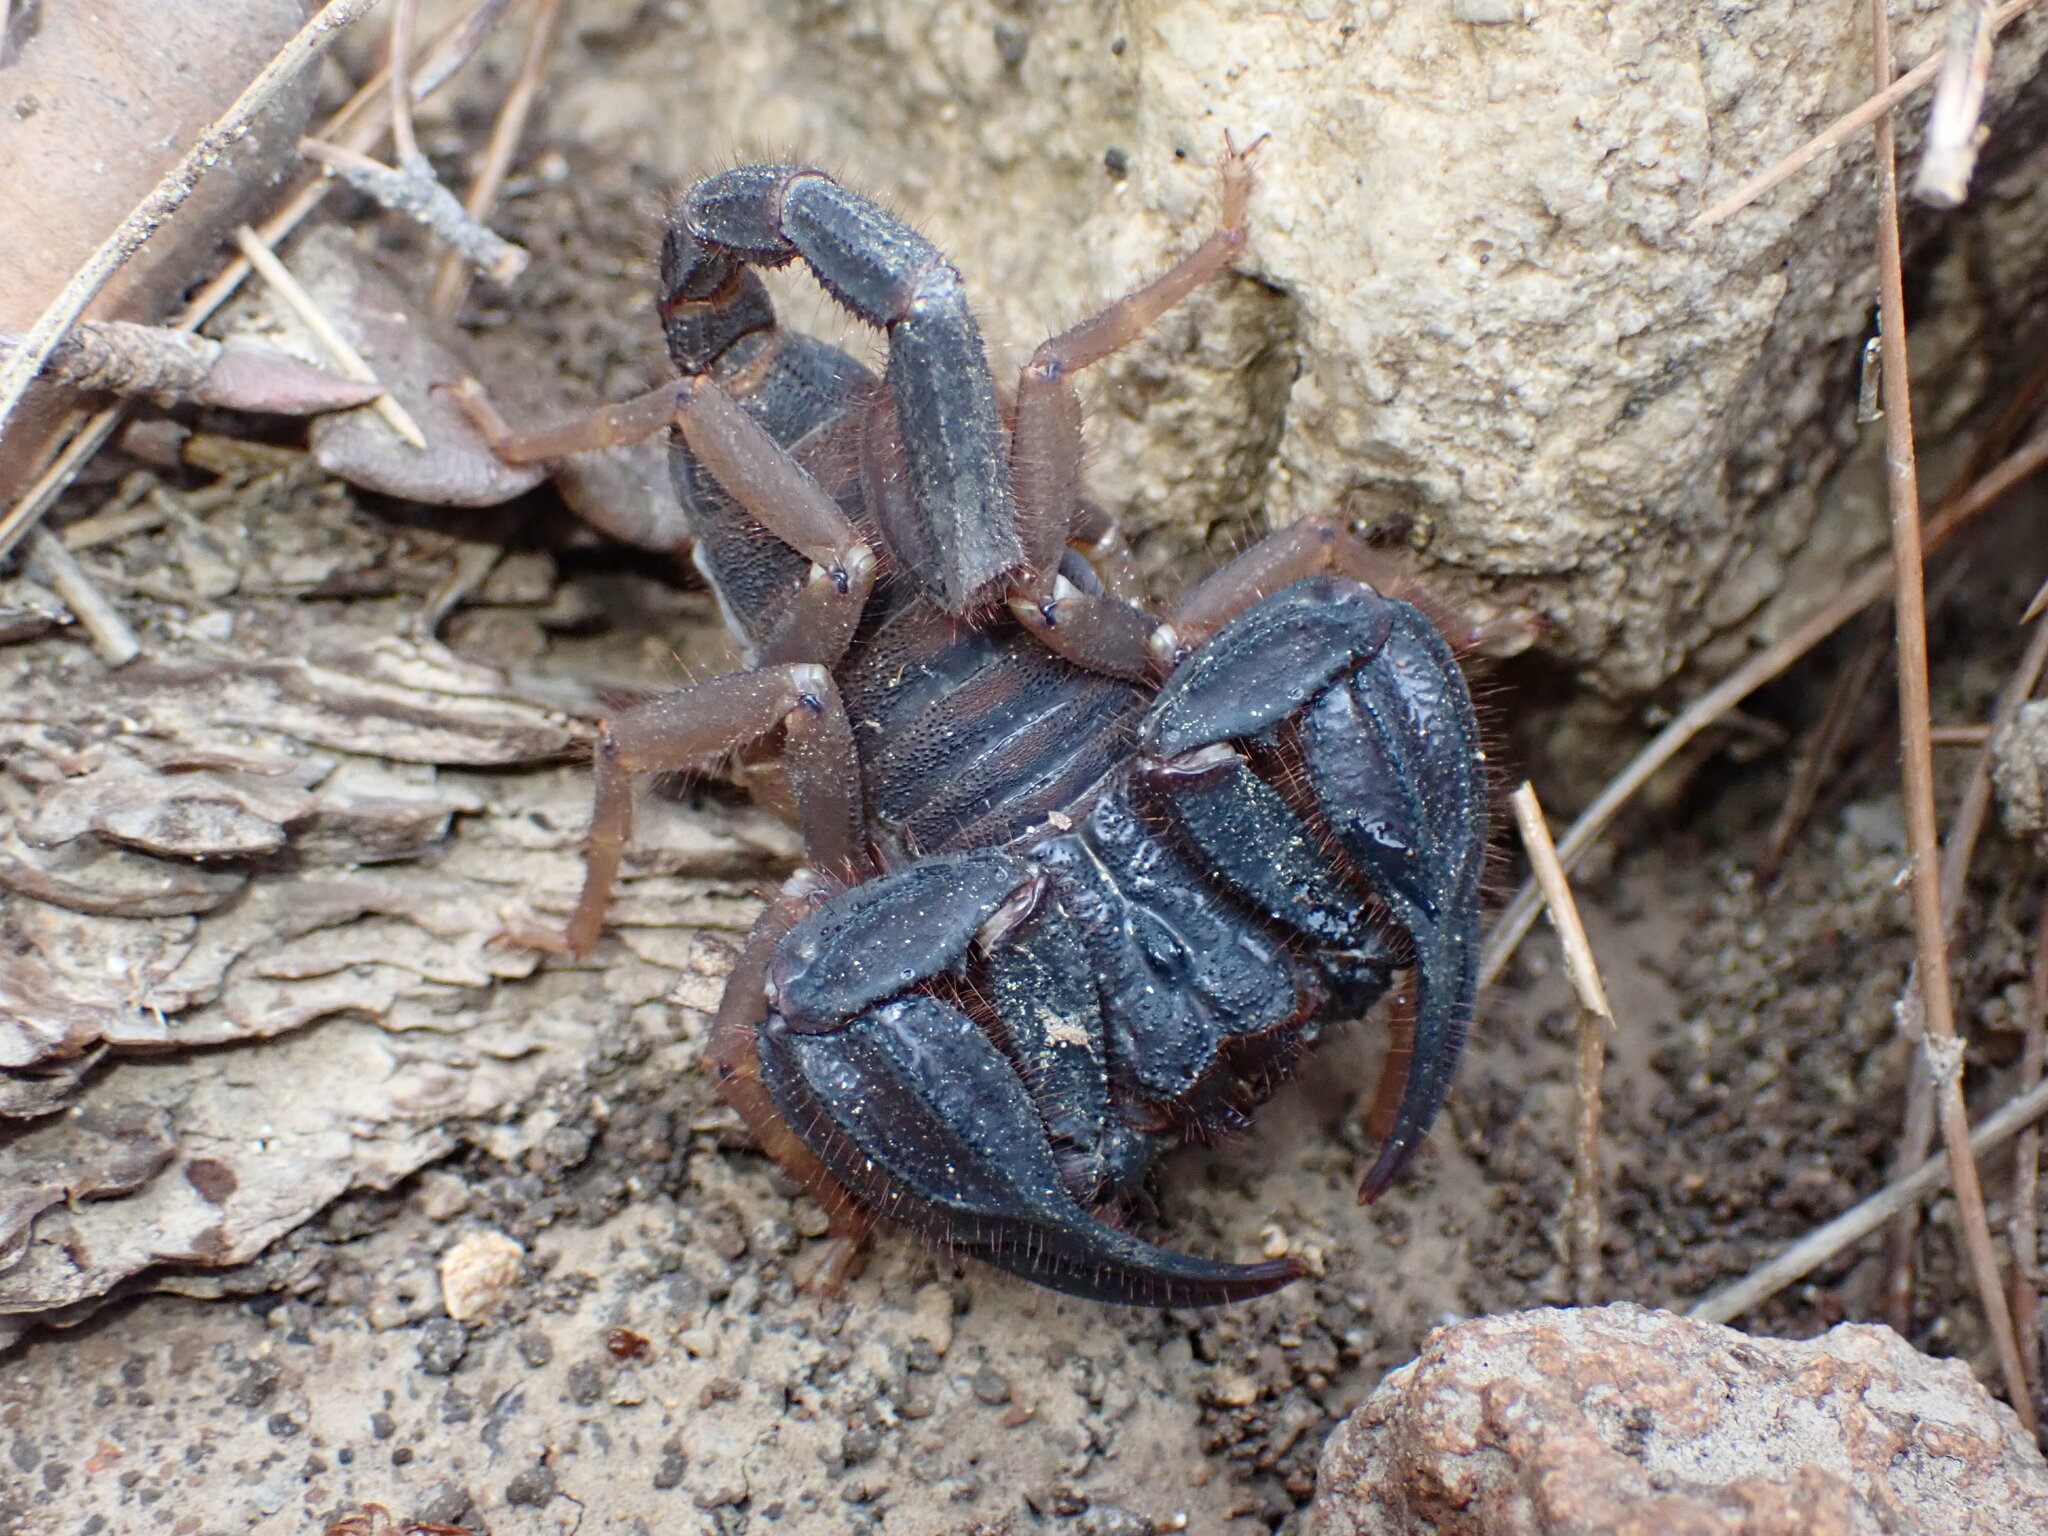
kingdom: Animalia
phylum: Arthropoda
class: Arachnida
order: Scorpiones
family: Iuridae
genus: Anatoliurus
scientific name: Anatoliurus kraepelini
